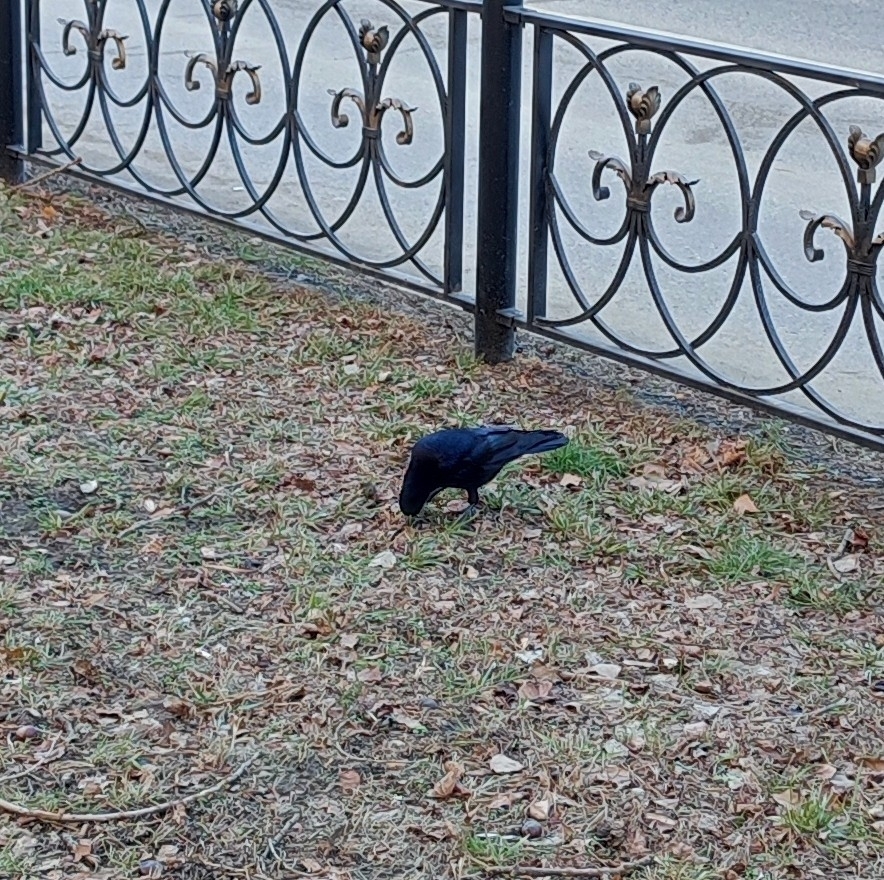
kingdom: Animalia
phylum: Chordata
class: Aves
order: Passeriformes
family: Corvidae
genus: Corvus
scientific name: Corvus frugilegus
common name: Rook
